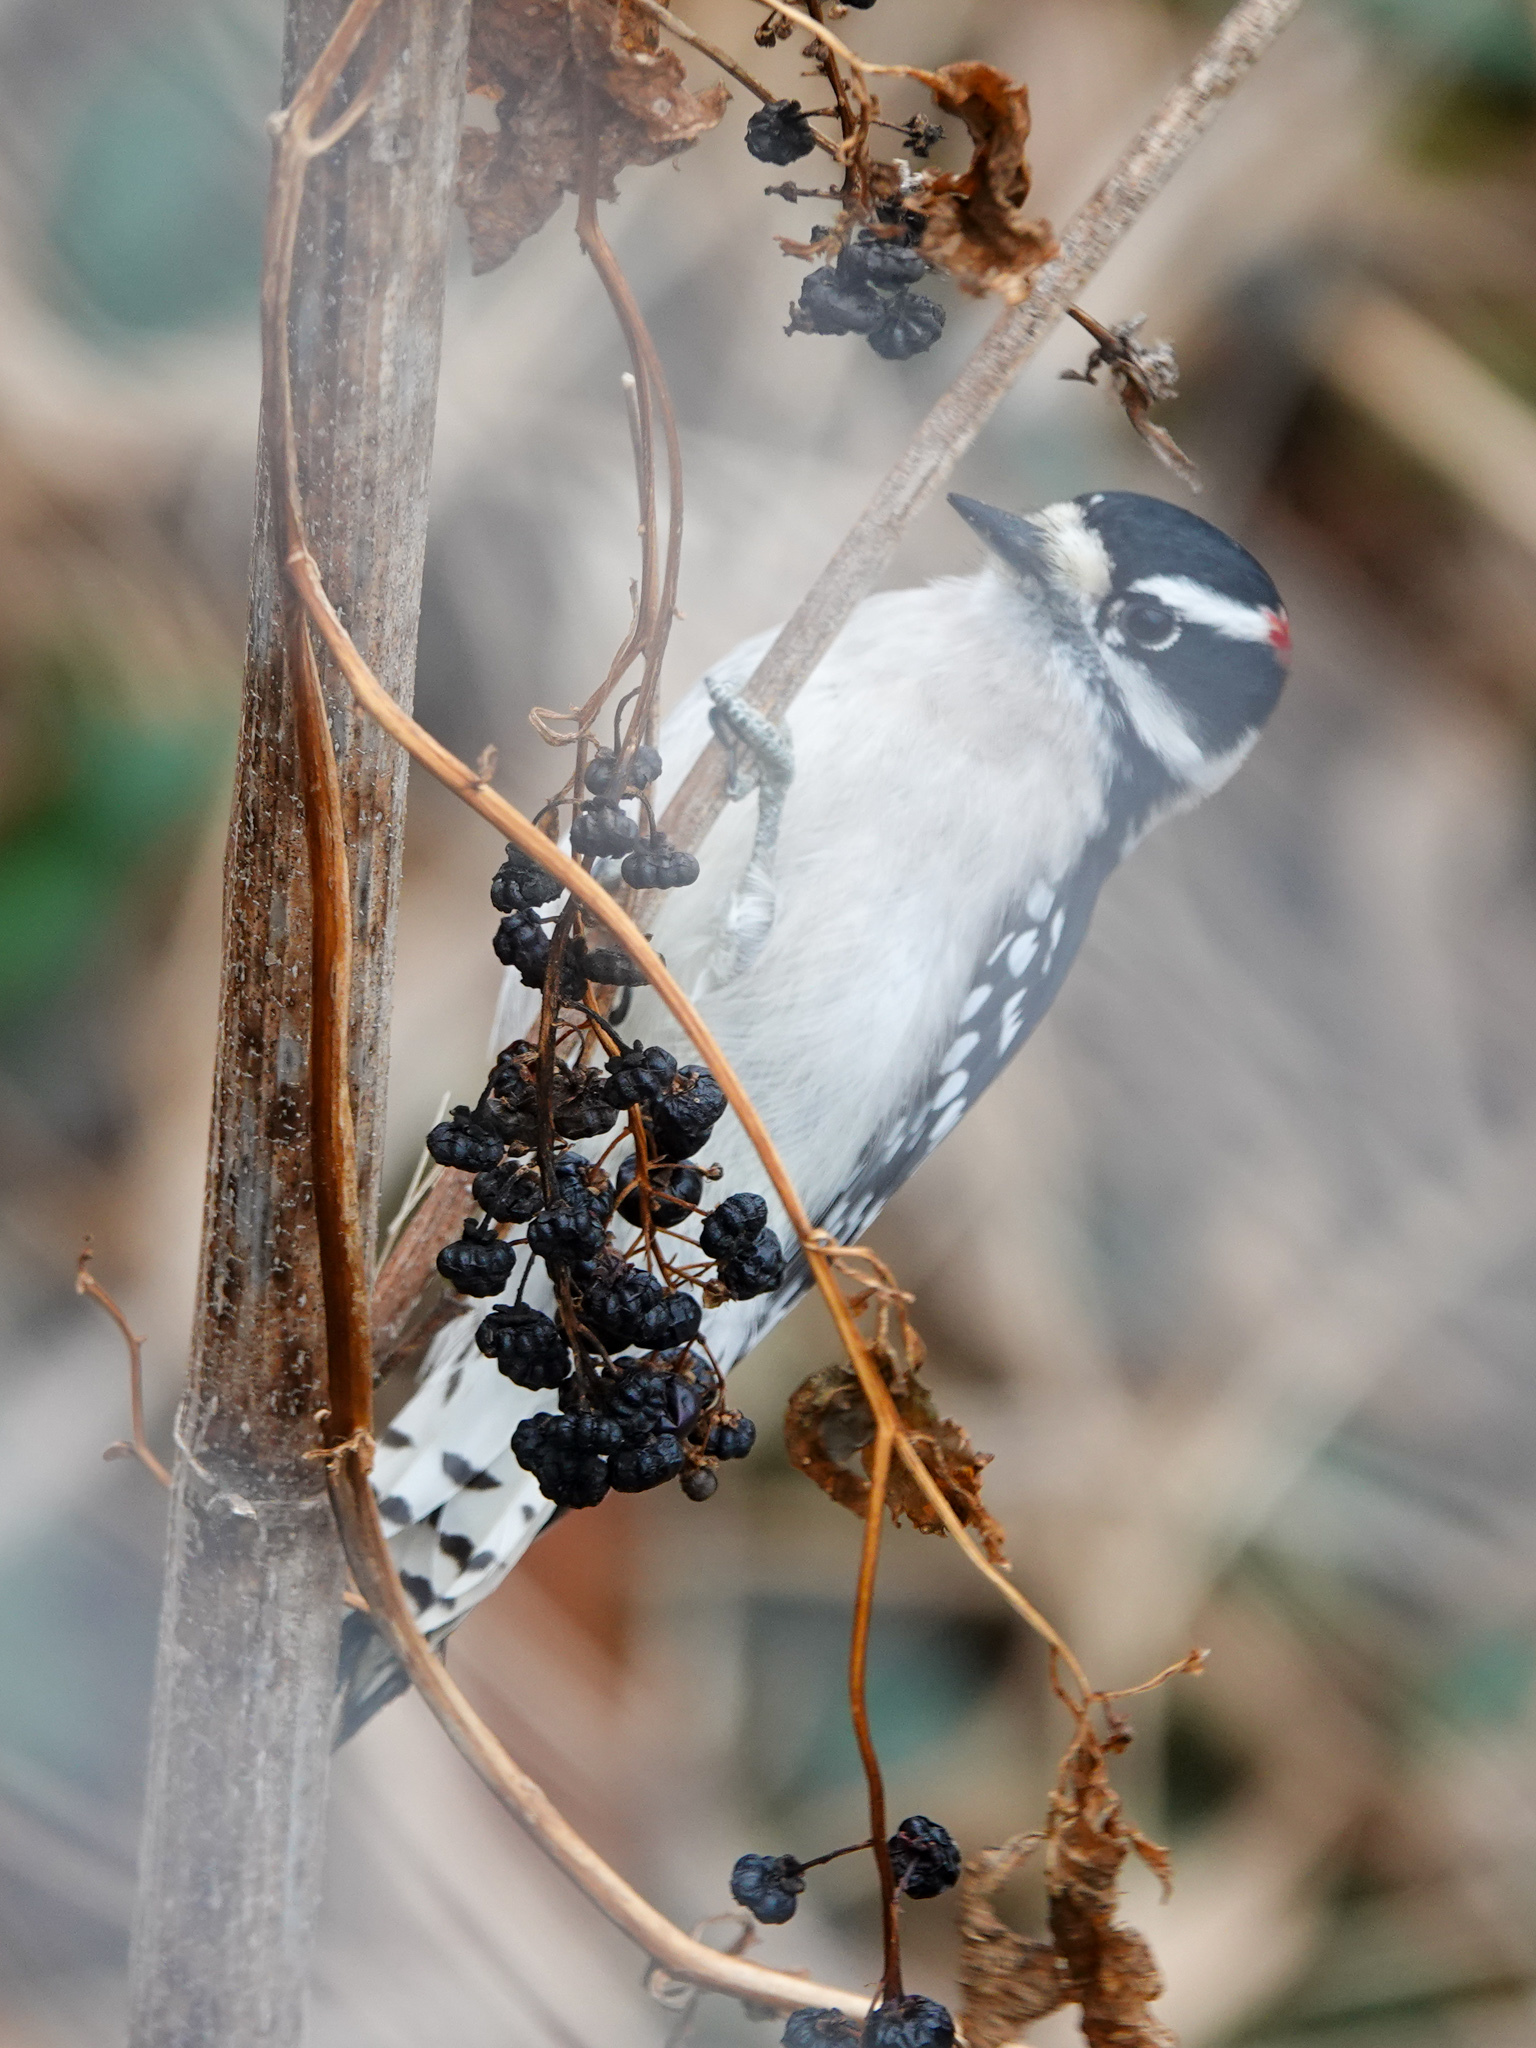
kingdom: Animalia
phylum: Chordata
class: Aves
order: Piciformes
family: Picidae
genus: Dryobates
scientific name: Dryobates pubescens
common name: Downy woodpecker
